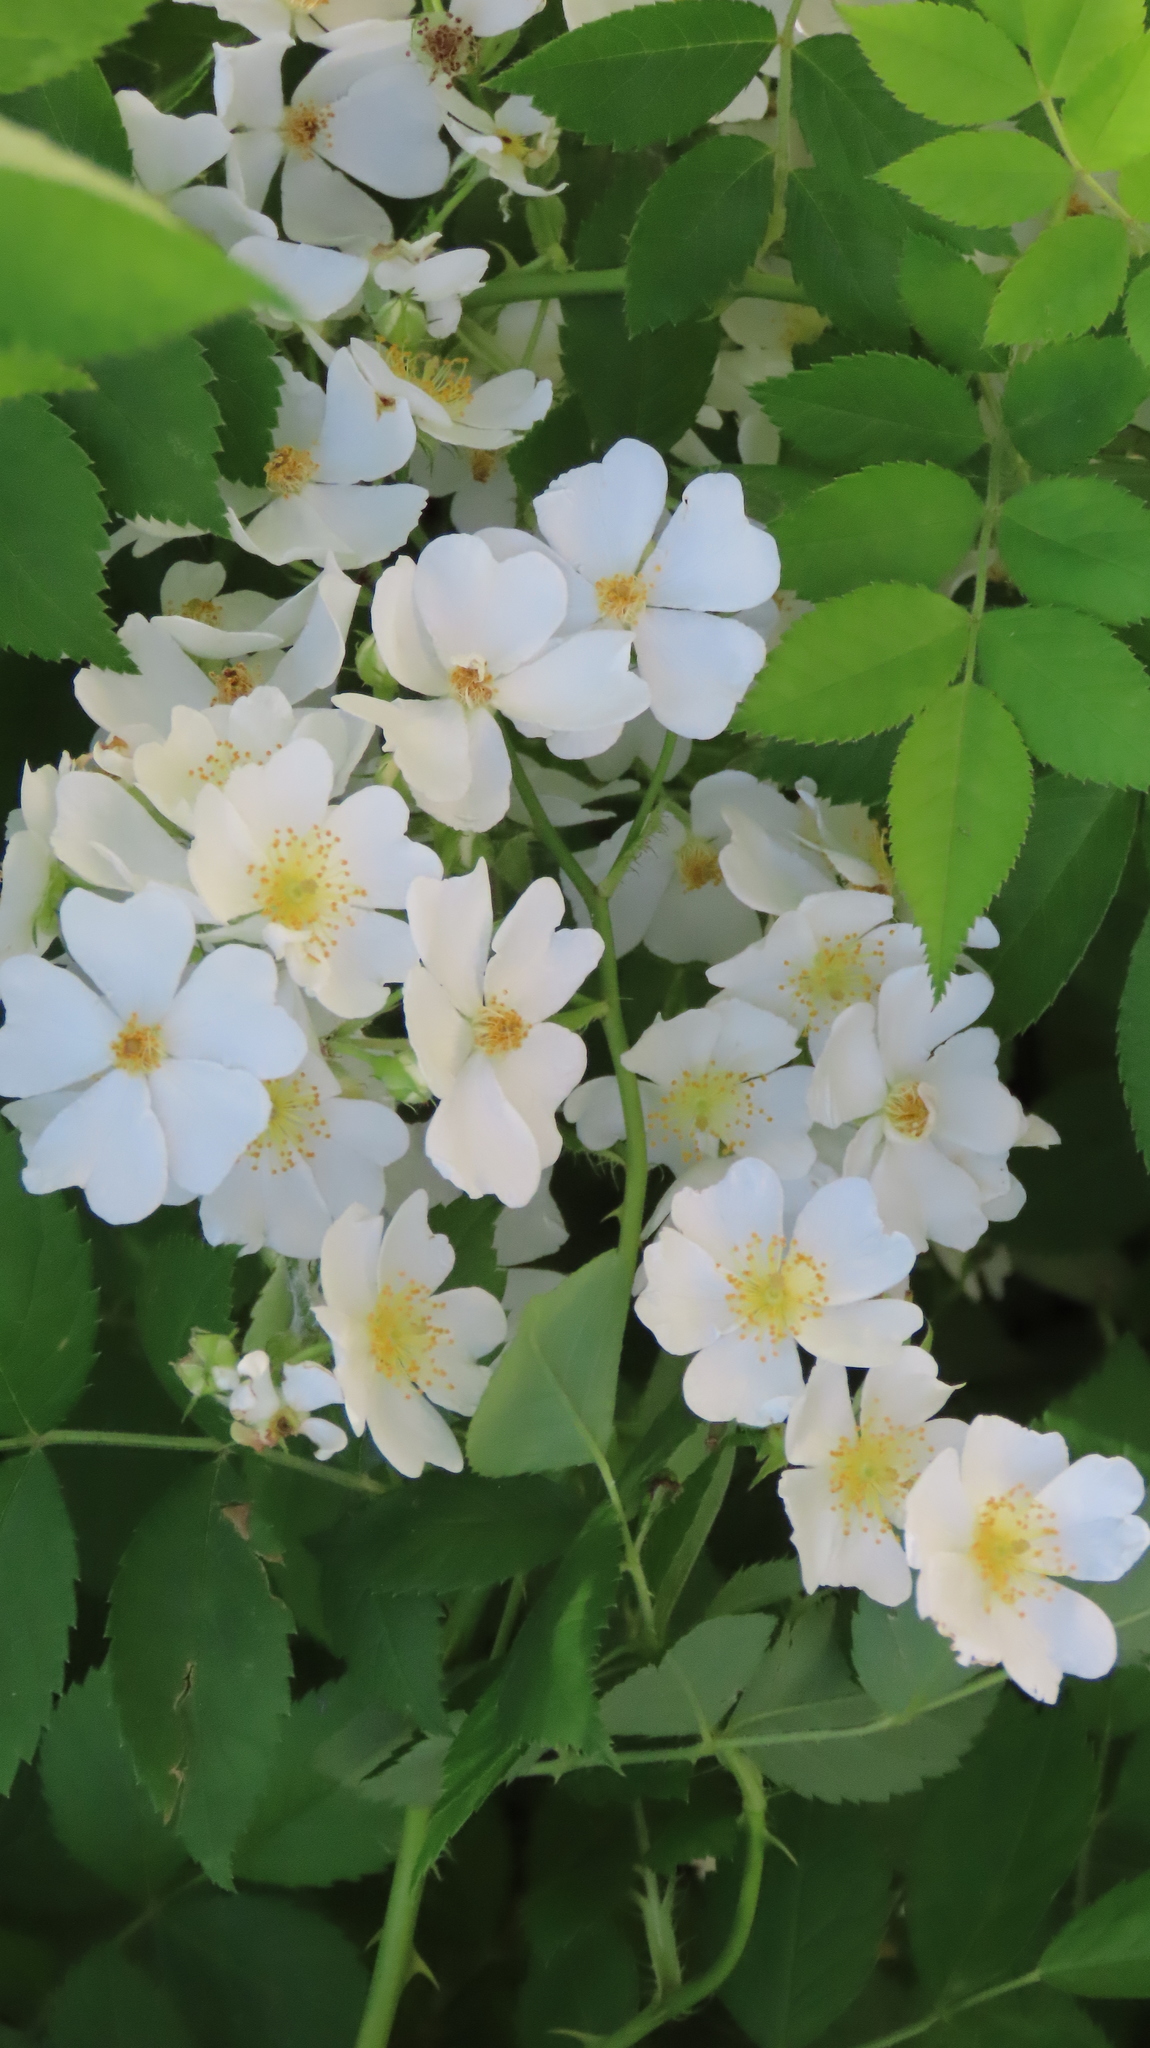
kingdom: Plantae
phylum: Tracheophyta
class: Magnoliopsida
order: Rosales
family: Rosaceae
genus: Rosa
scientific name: Rosa multiflora
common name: Multiflora rose
